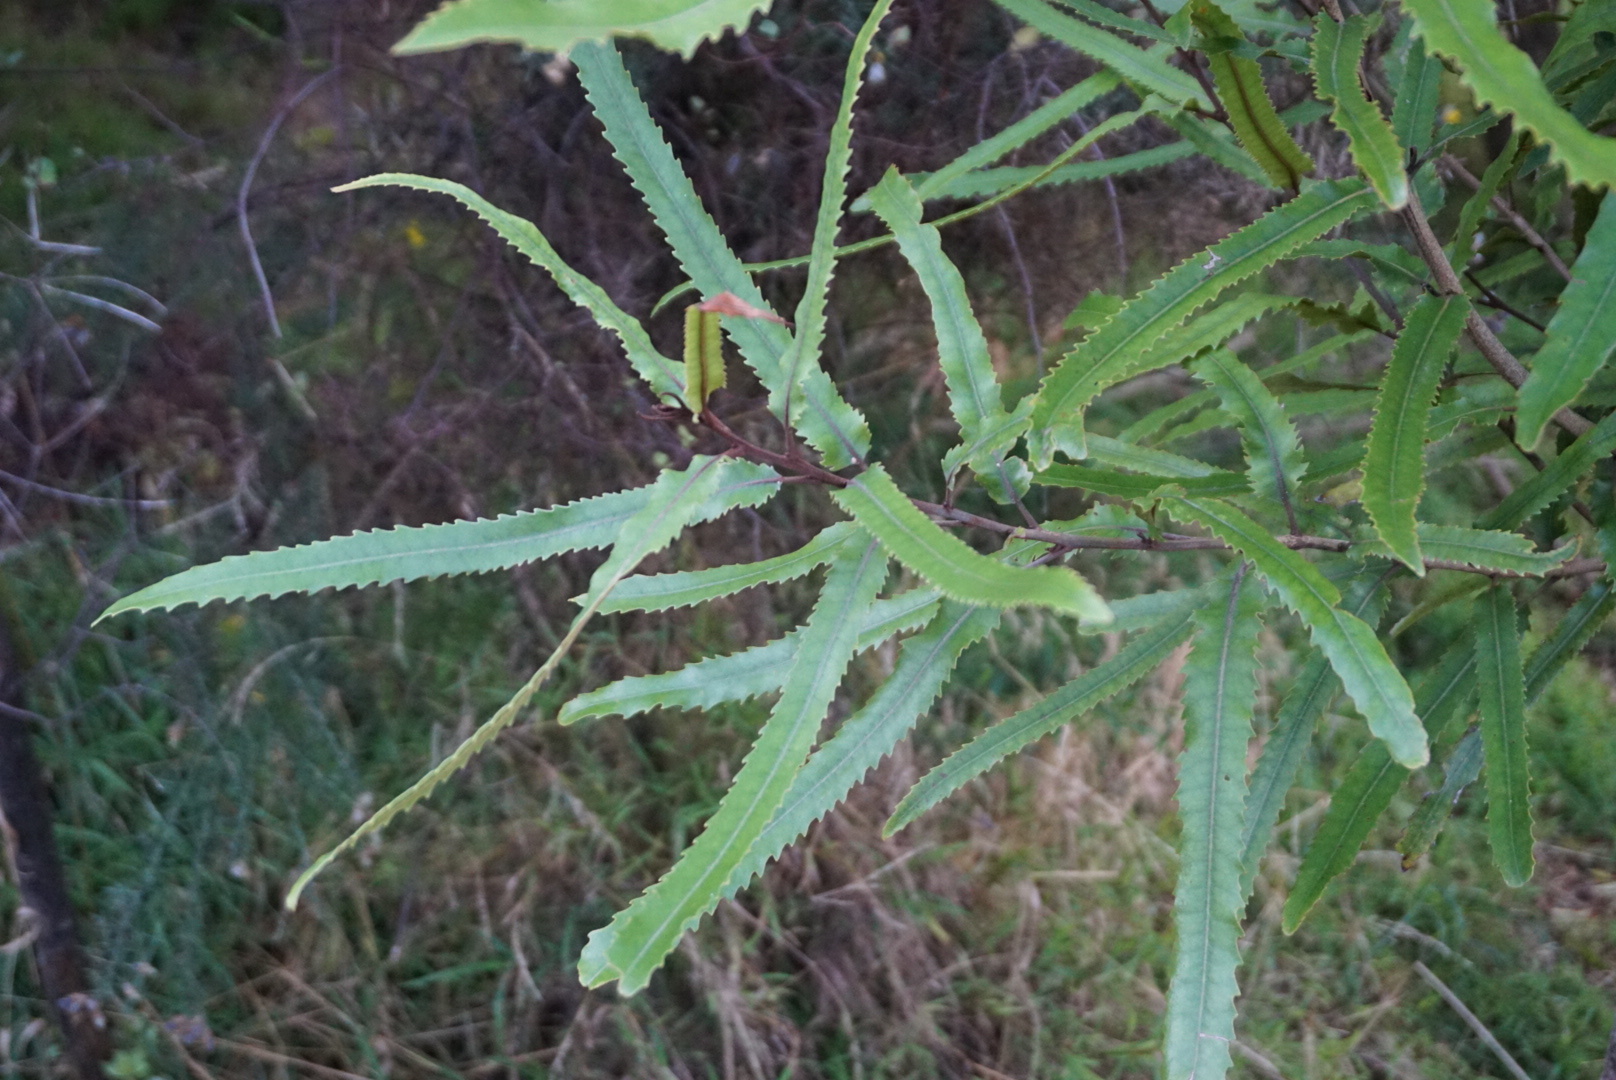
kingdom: Plantae
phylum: Tracheophyta
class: Magnoliopsida
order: Proteales
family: Proteaceae
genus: Knightia
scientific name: Knightia excelsa
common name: New zealand-honeysuckle
